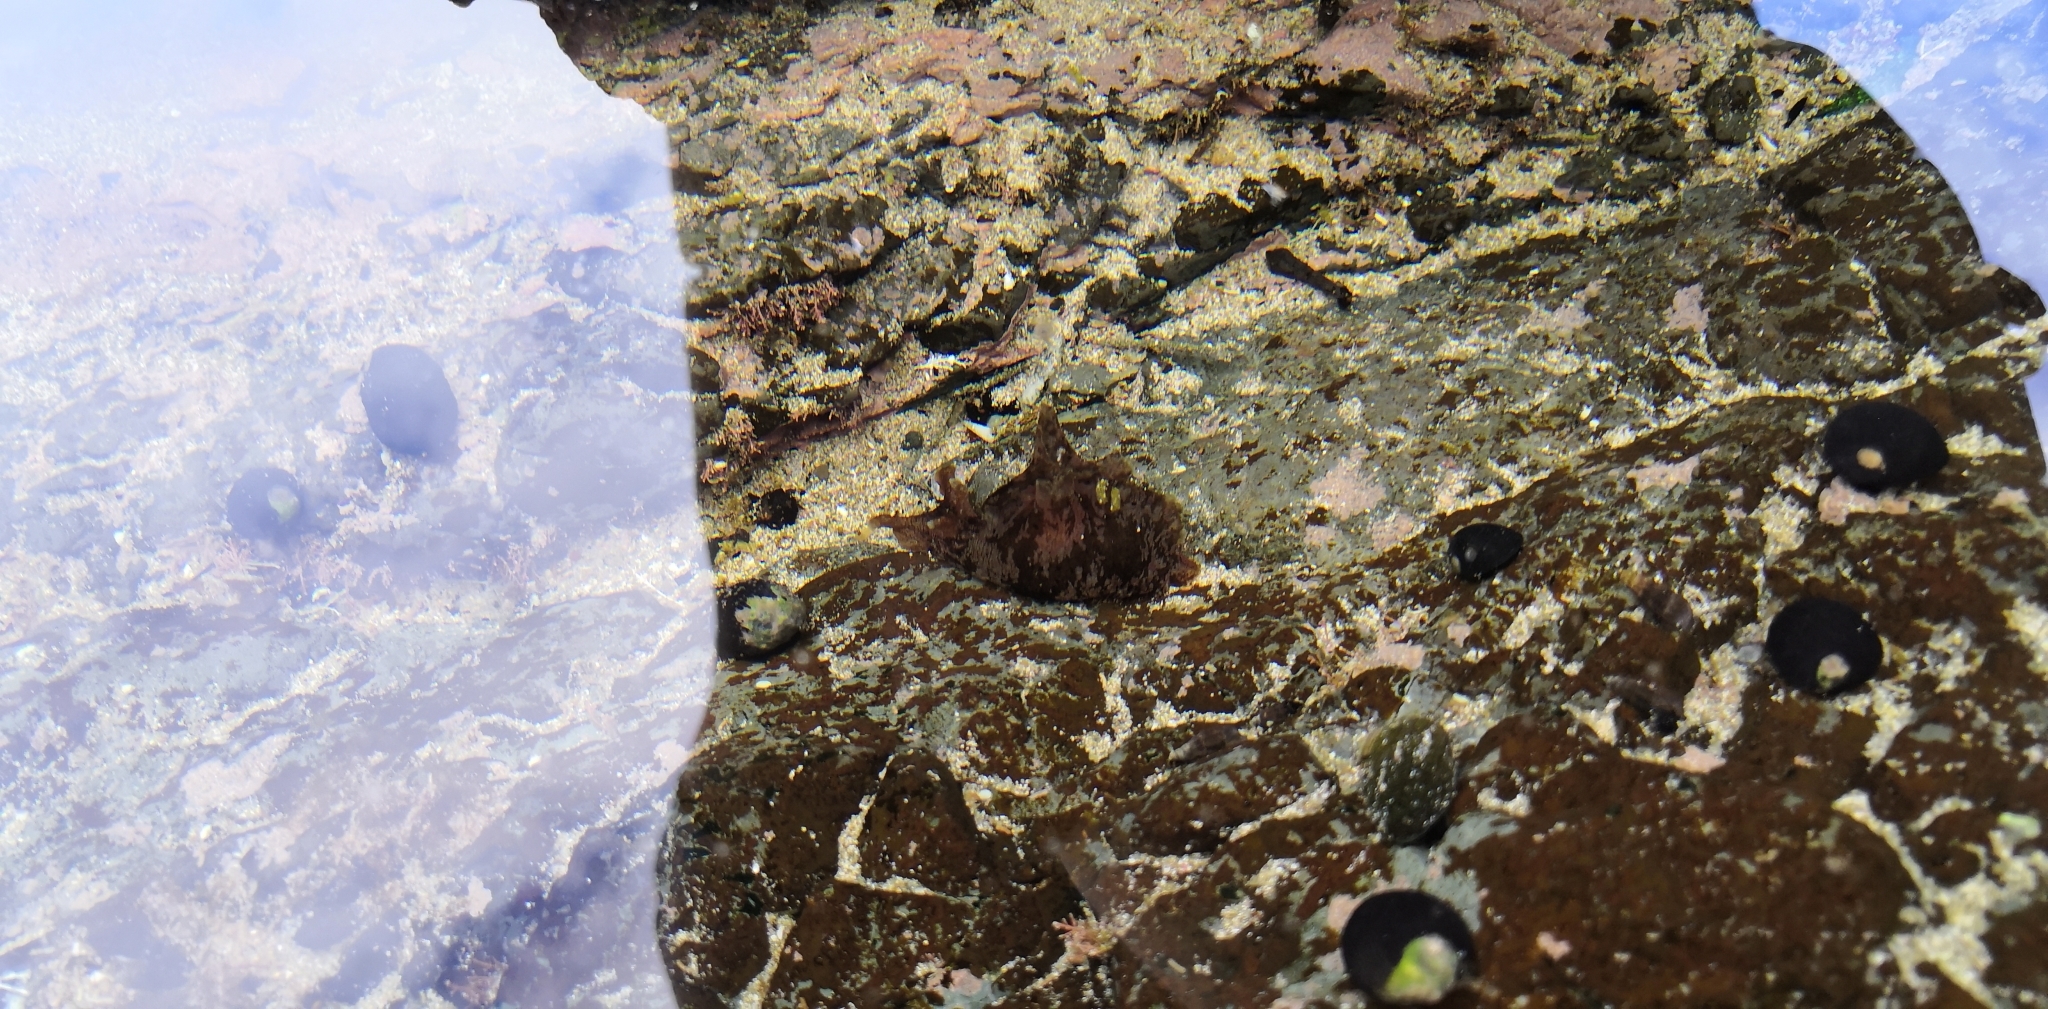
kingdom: Animalia
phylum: Mollusca
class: Gastropoda
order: Aplysiida
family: Aplysiidae
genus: Aplysia
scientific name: Aplysia keraudreni
